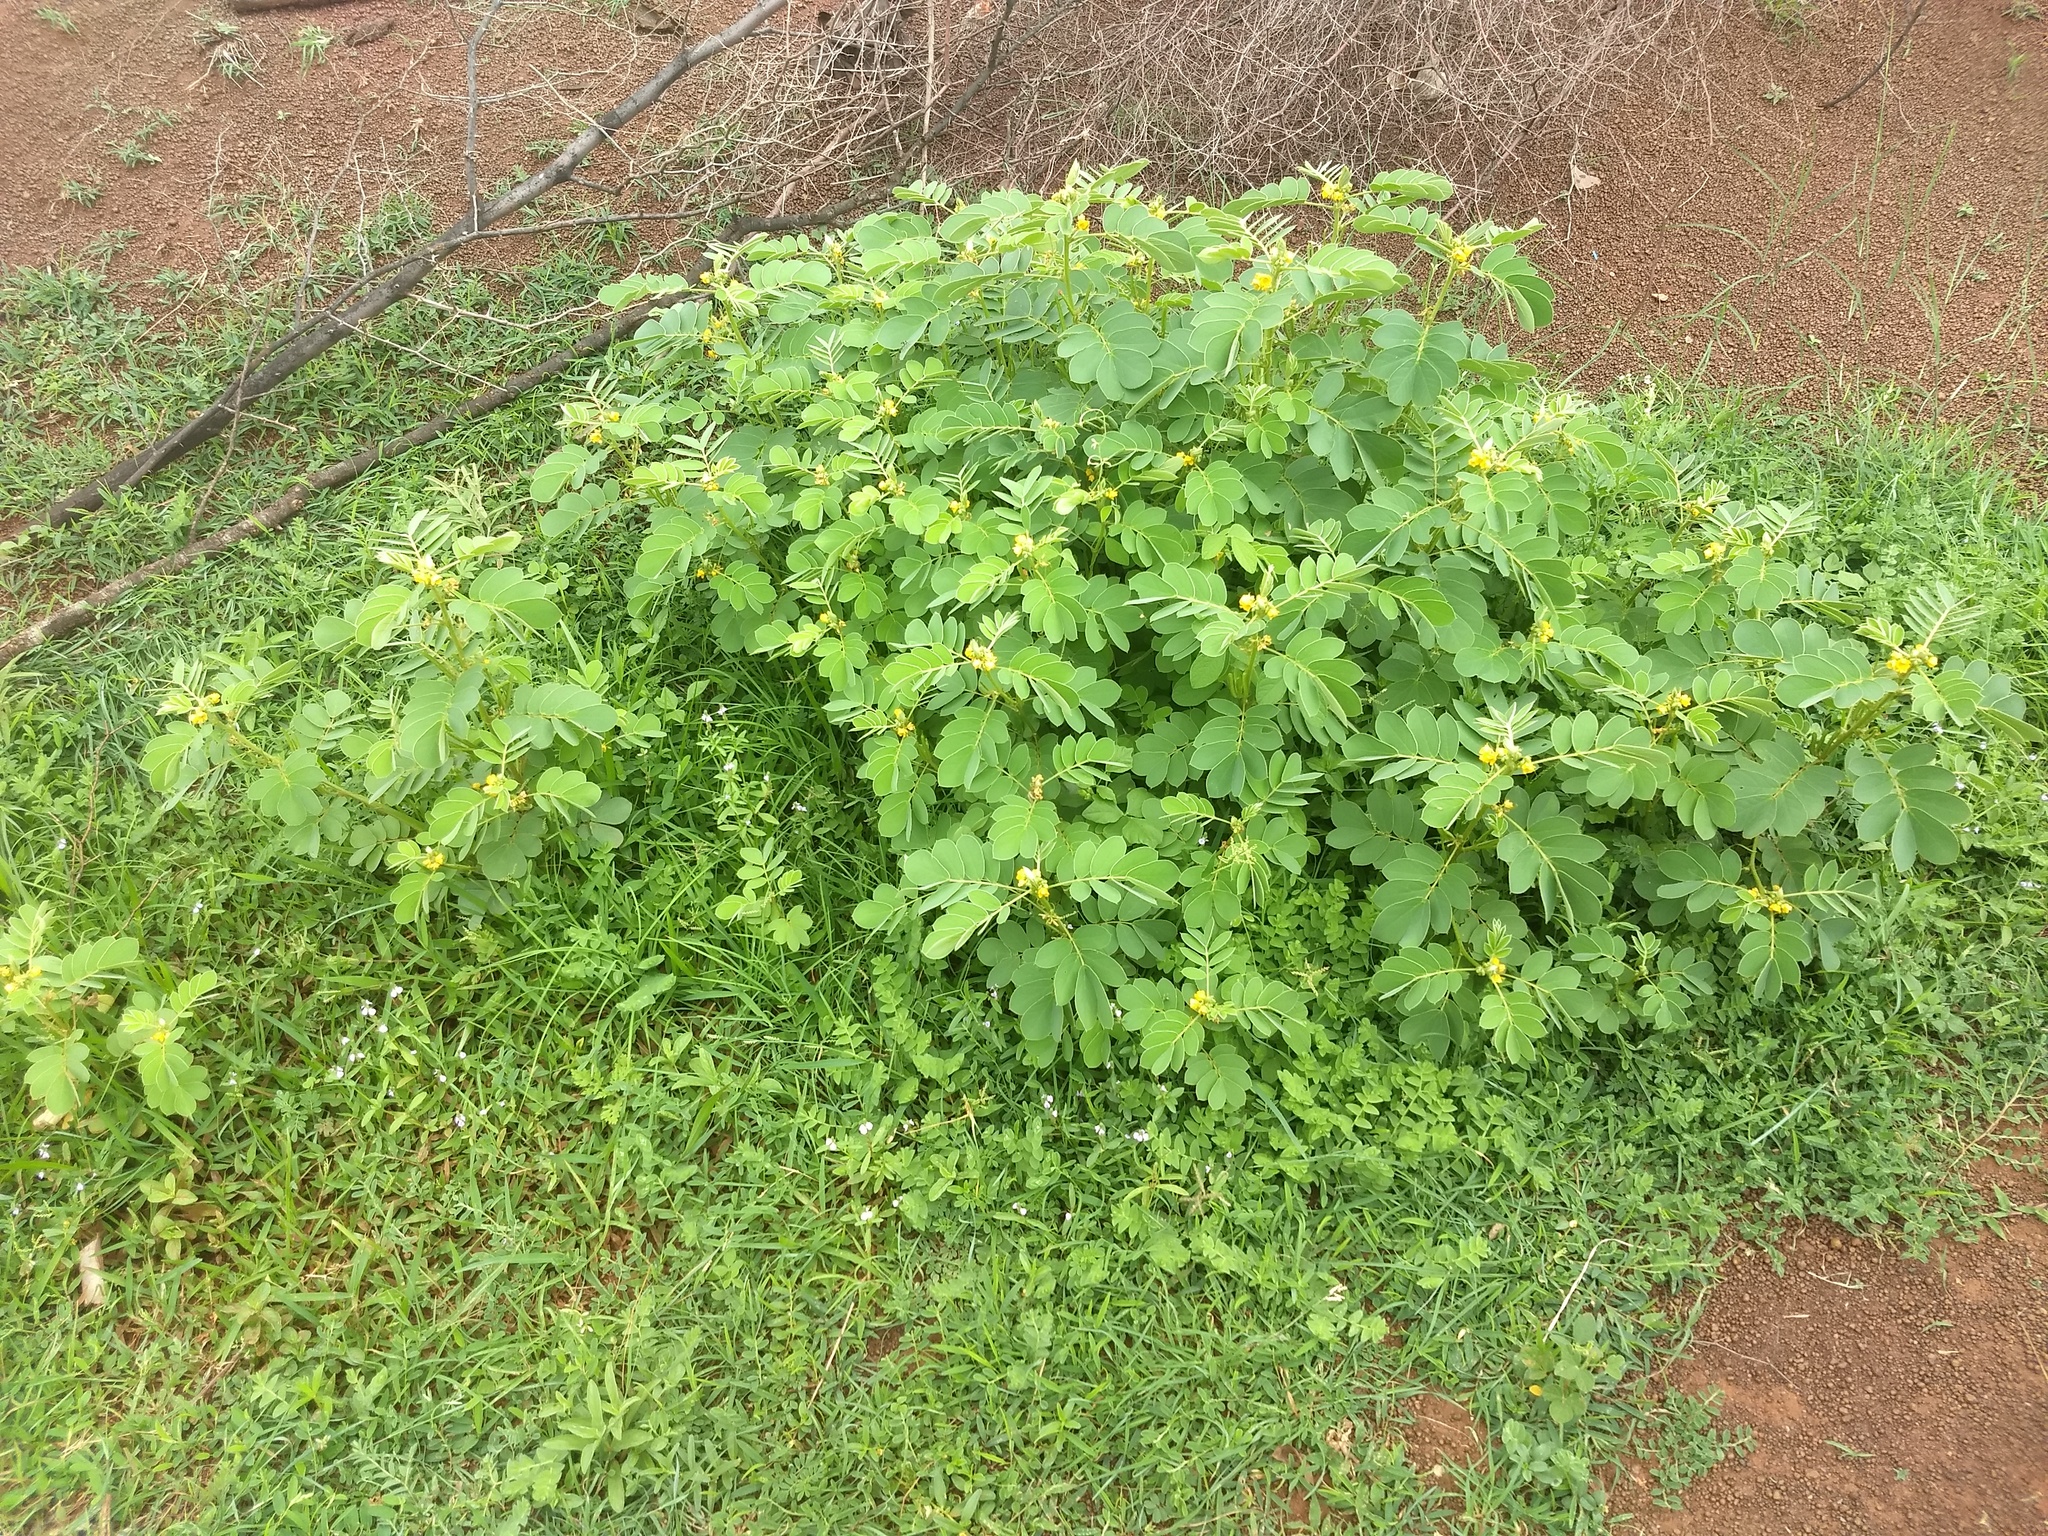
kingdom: Plantae
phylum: Tracheophyta
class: Magnoliopsida
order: Fabales
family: Fabaceae
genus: Senna
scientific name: Senna uniflora
